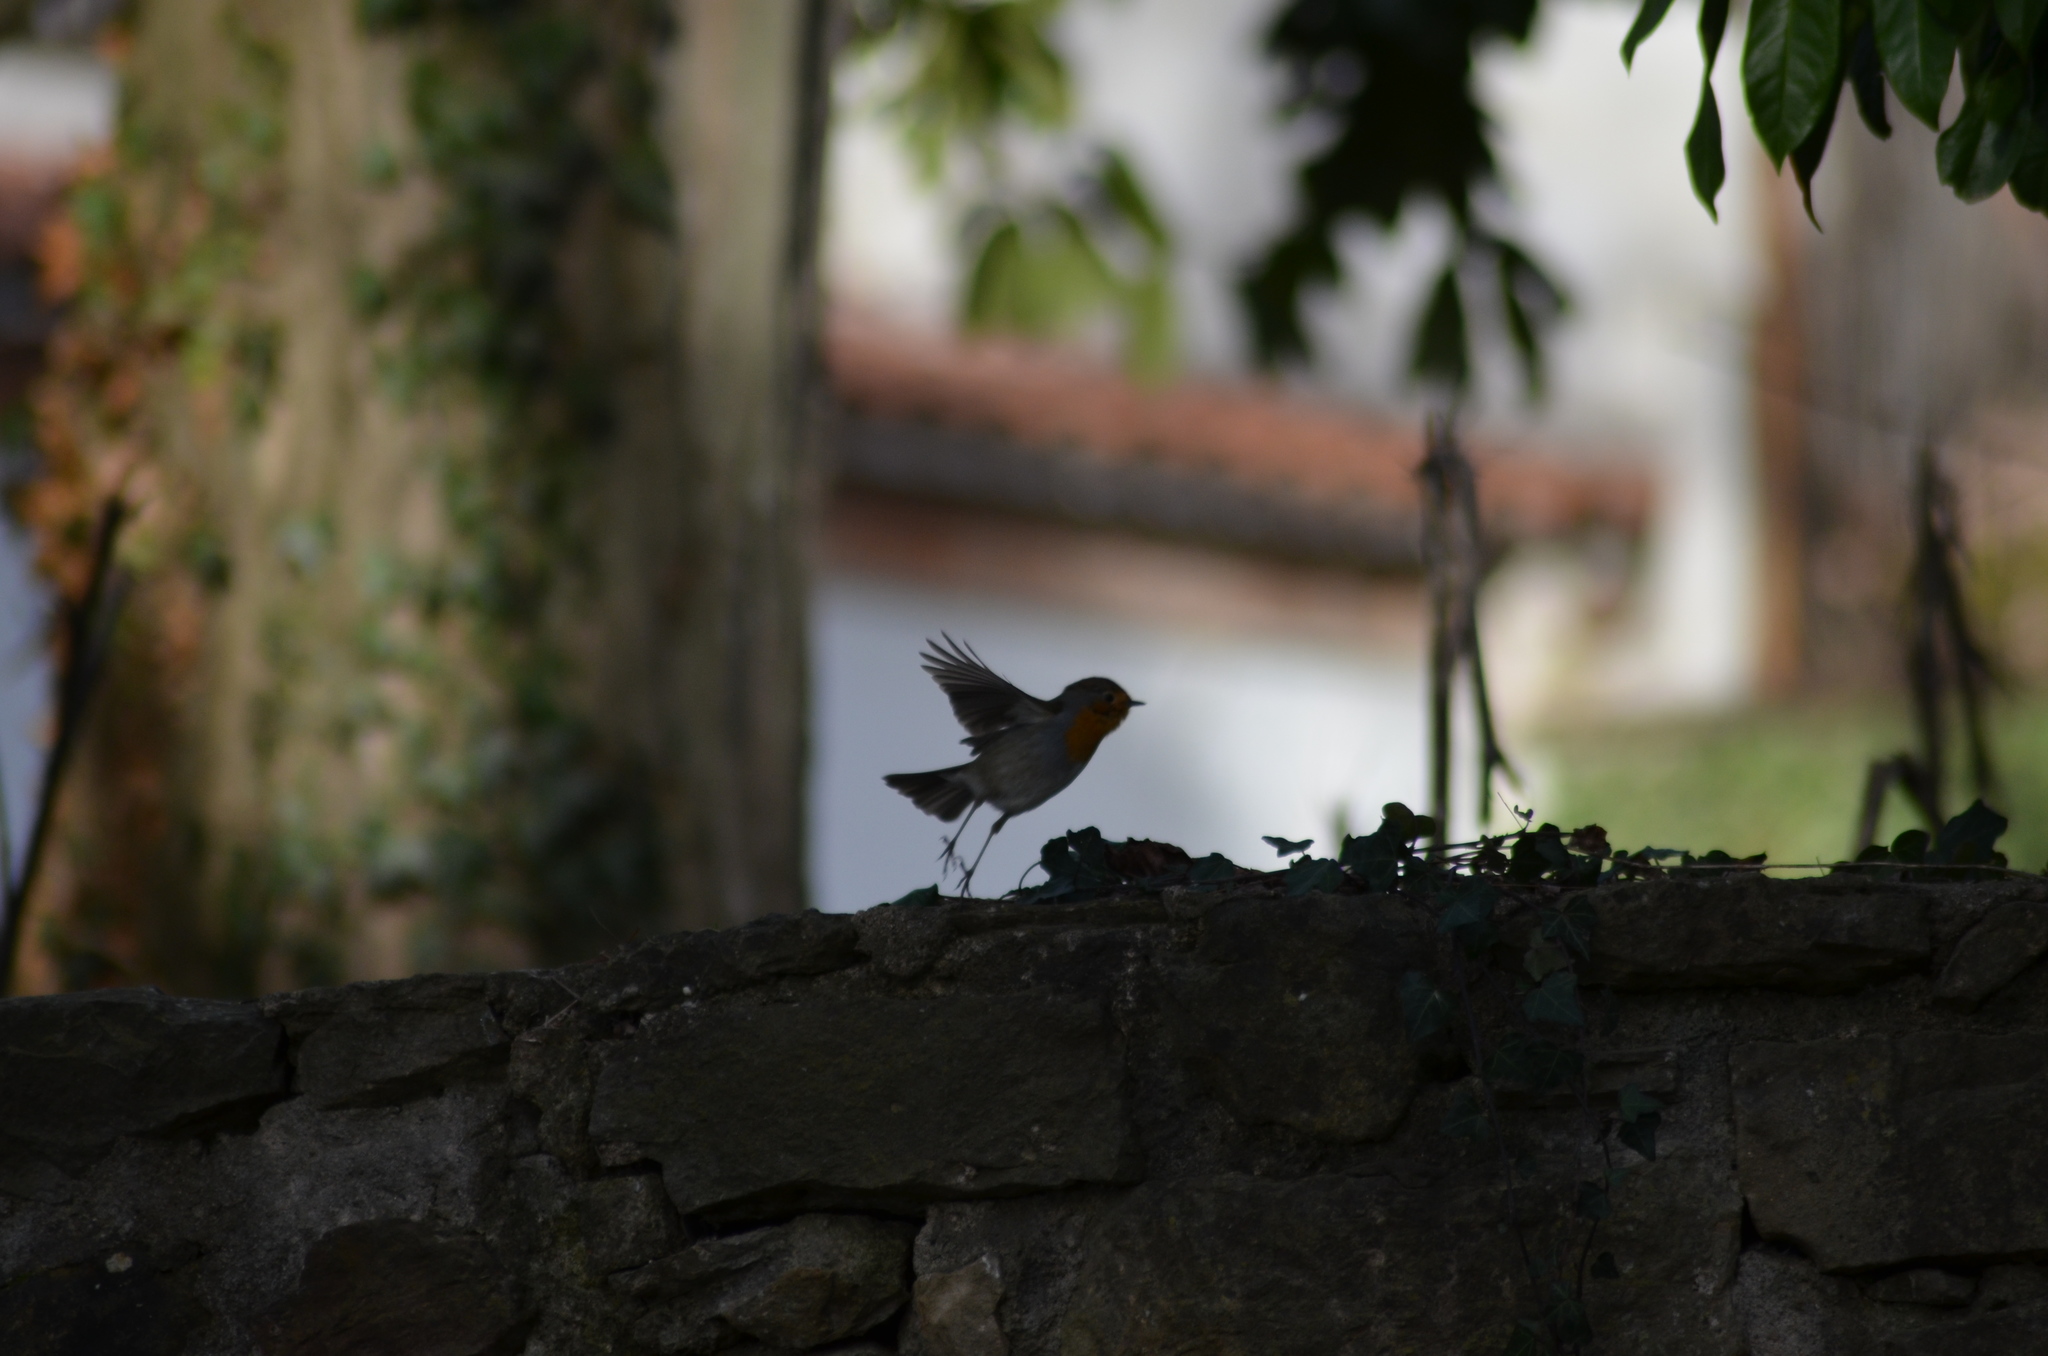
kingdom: Animalia
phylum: Chordata
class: Aves
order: Passeriformes
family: Muscicapidae
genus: Erithacus
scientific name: Erithacus rubecula
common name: European robin
